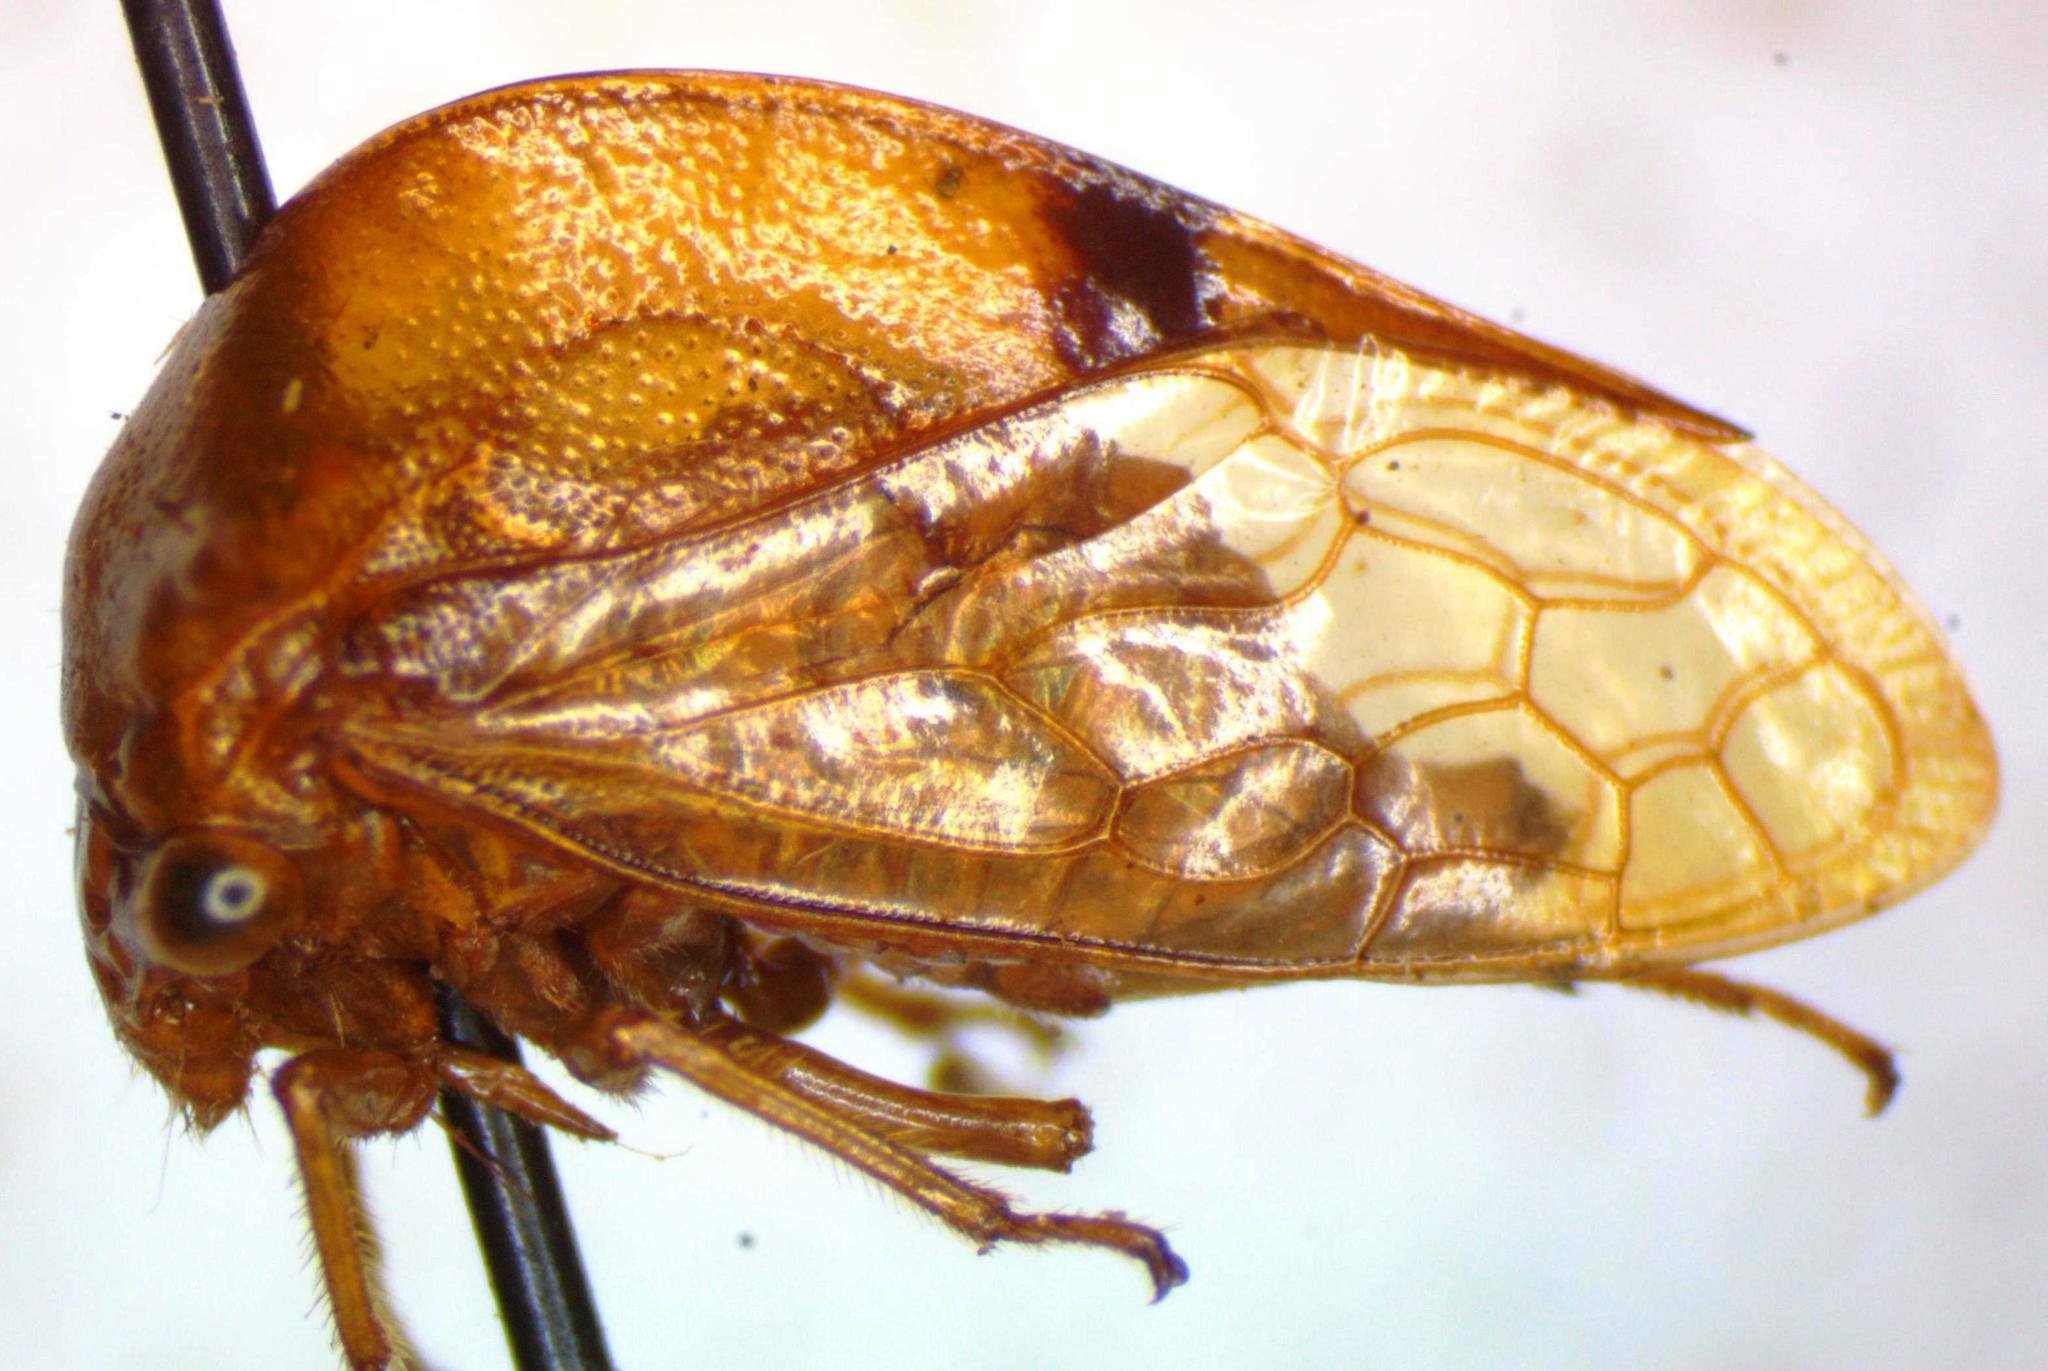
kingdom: Animalia
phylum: Arthropoda
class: Insecta
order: Hemiptera
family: Membracidae
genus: Vestistilus
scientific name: Vestistilus nigrovittata
